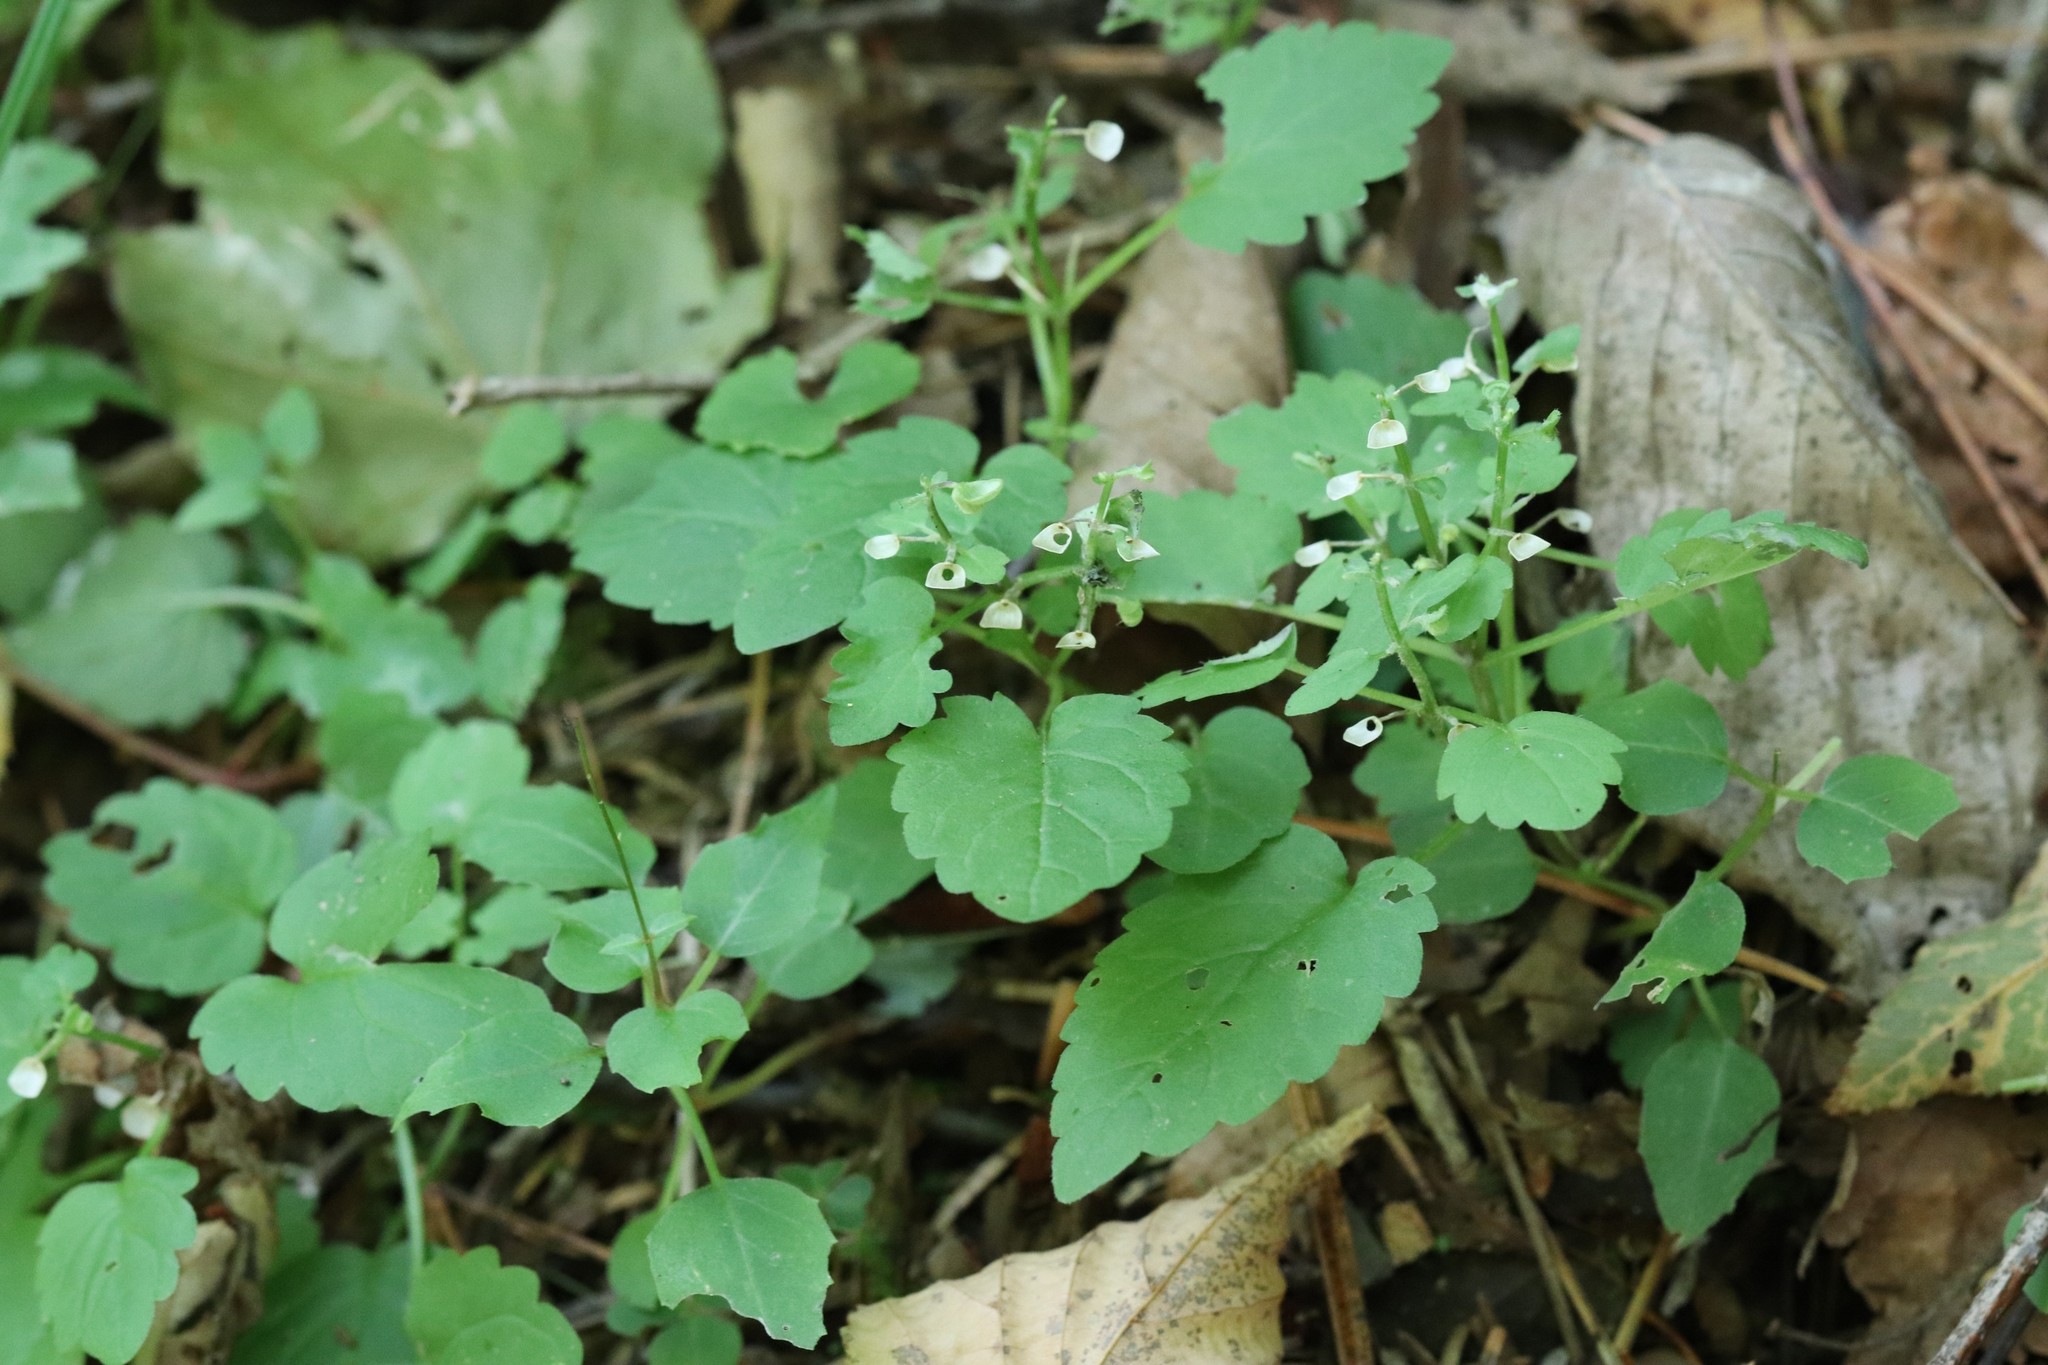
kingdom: Plantae
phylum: Tracheophyta
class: Magnoliopsida
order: Lamiales
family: Lamiaceae
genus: Scutellaria
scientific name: Scutellaria pekinensis
